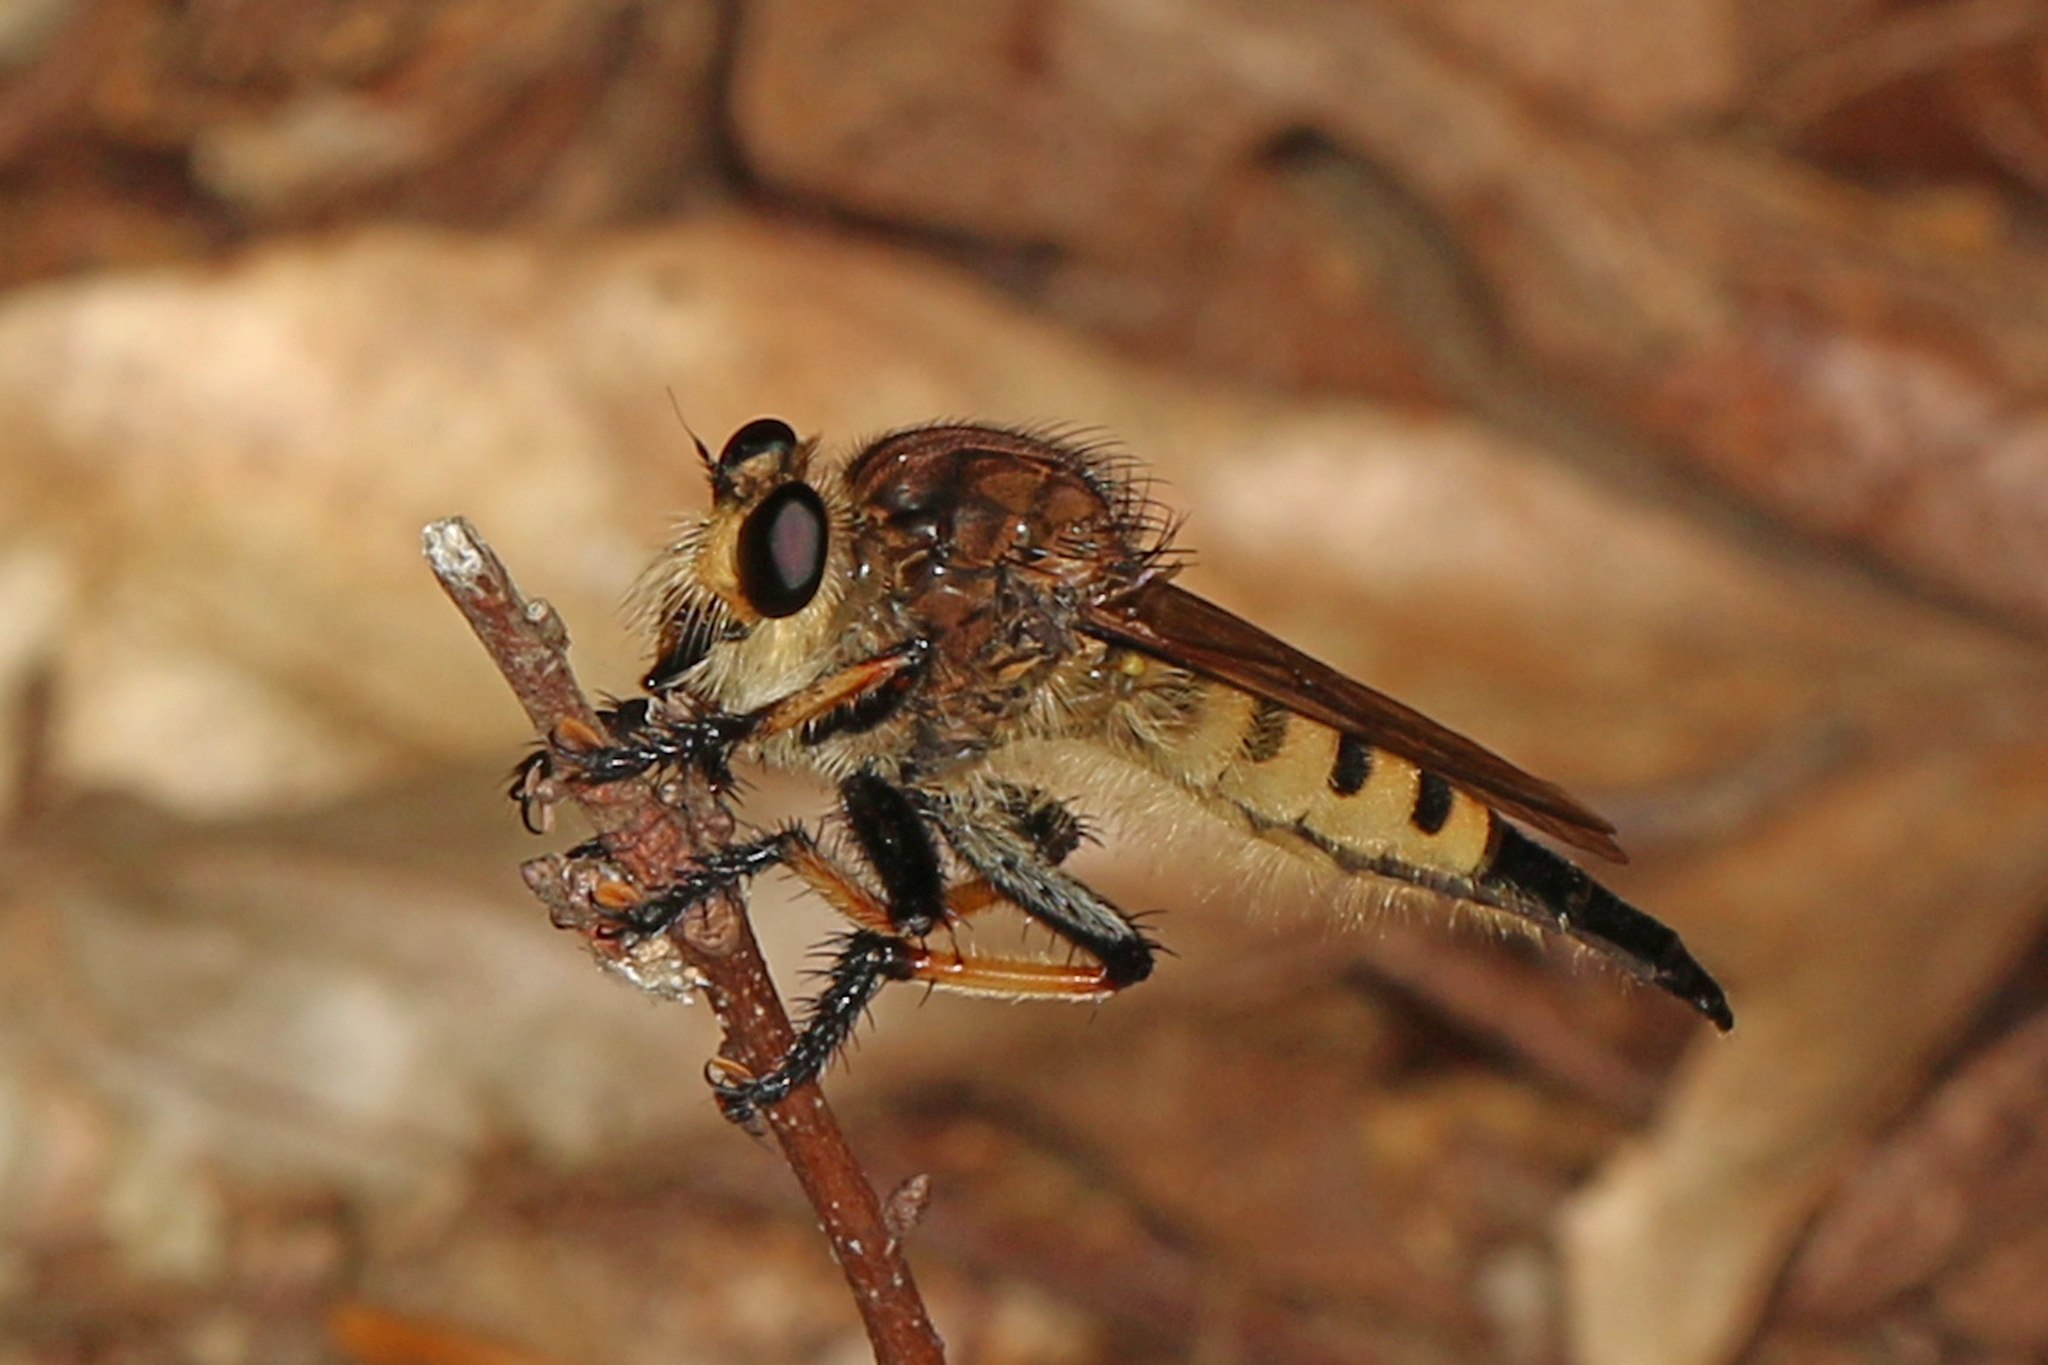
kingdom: Animalia
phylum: Arthropoda
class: Insecta
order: Diptera
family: Asilidae
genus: Promachus
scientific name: Promachus rufipes
